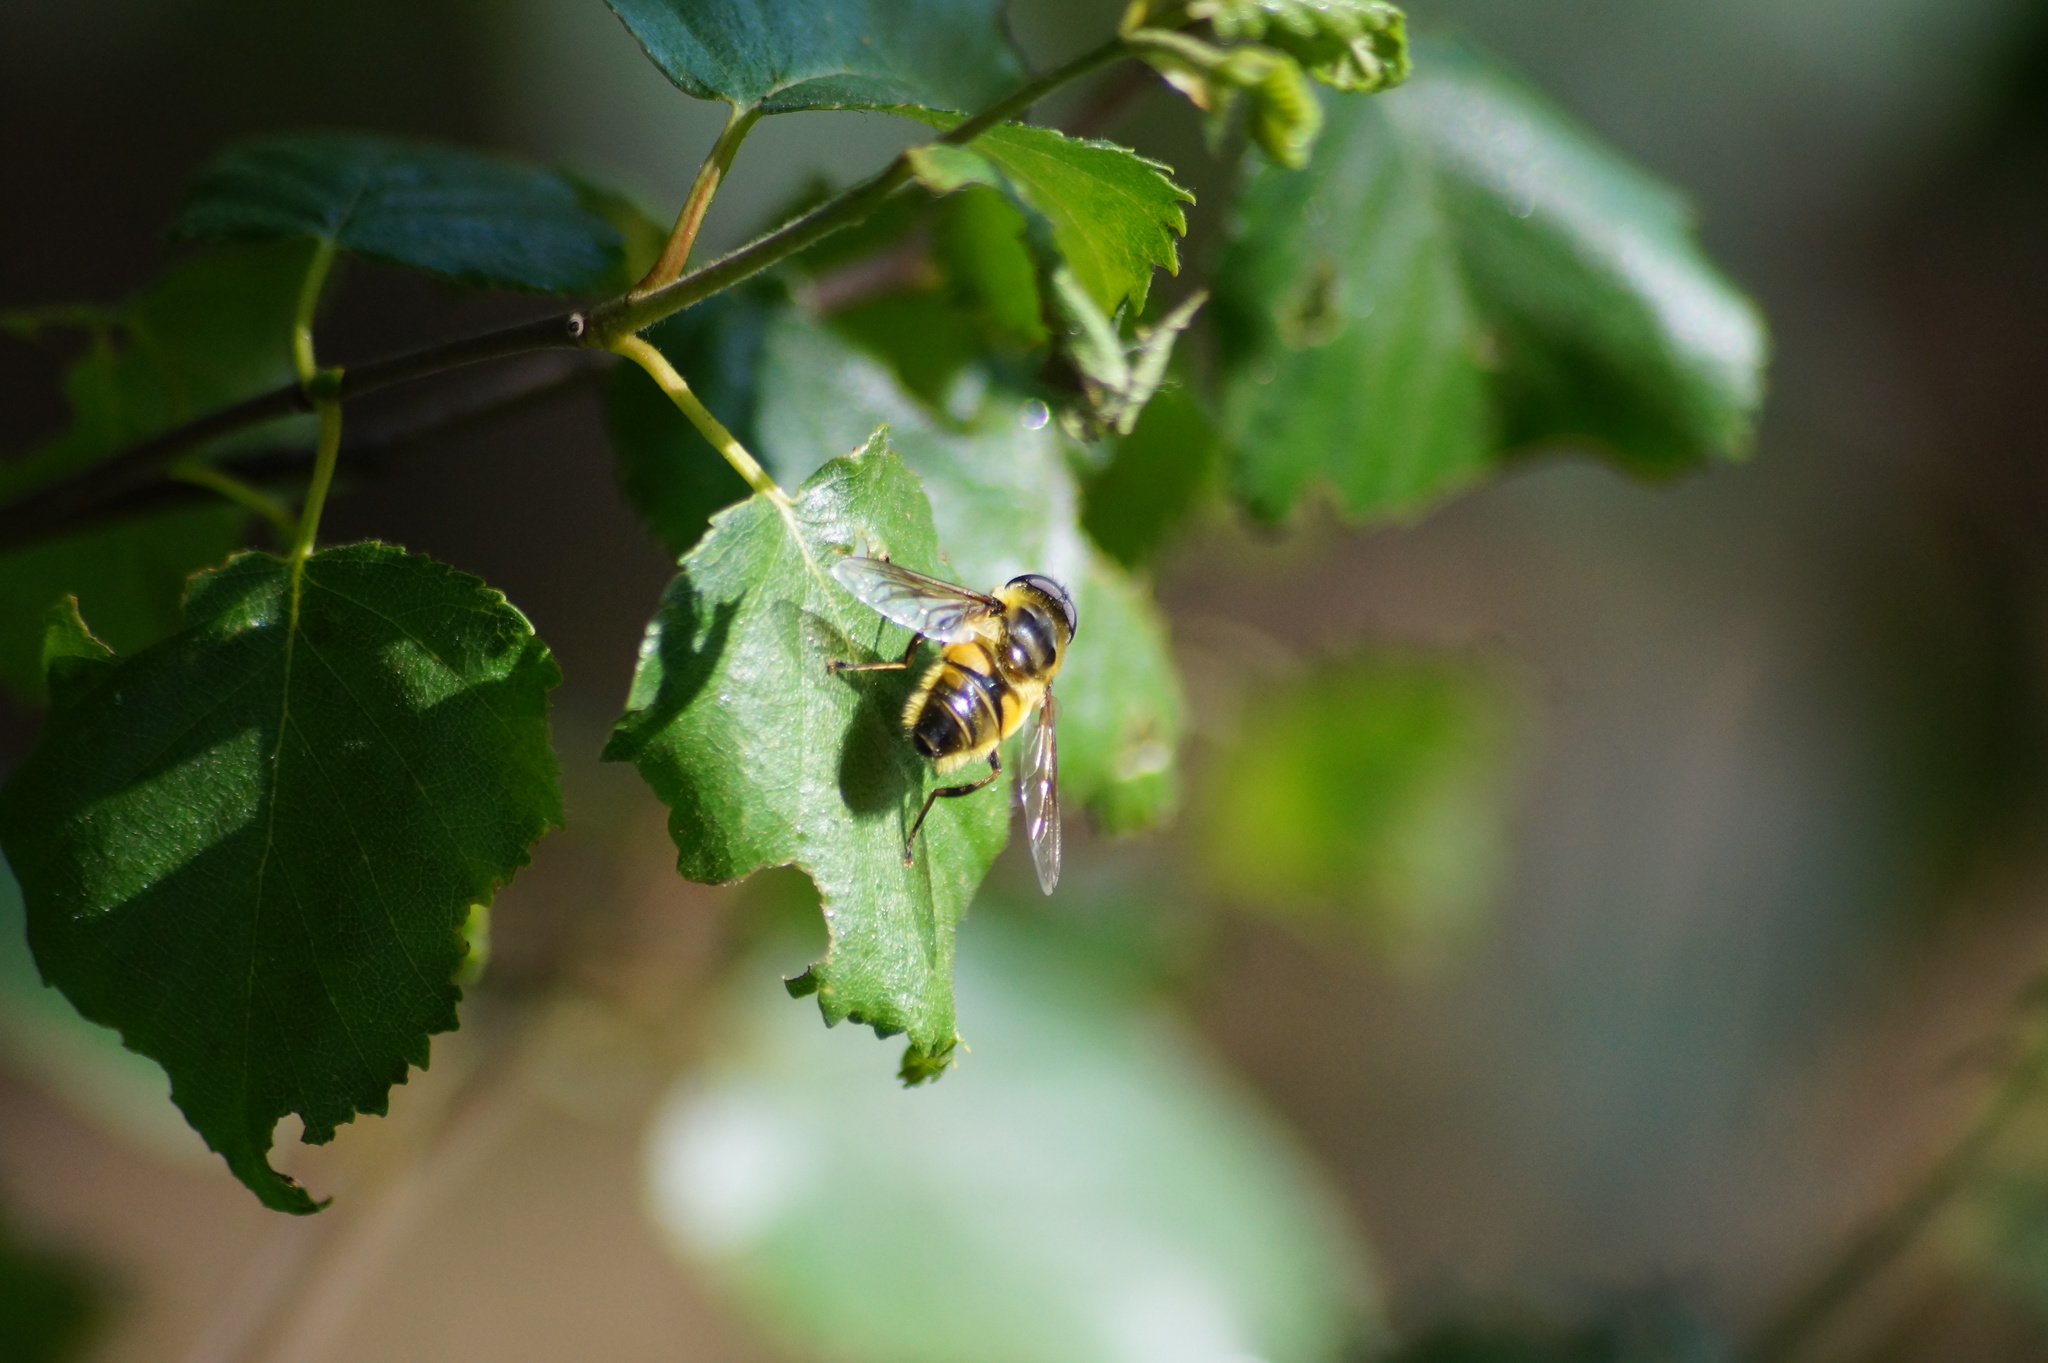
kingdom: Animalia
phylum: Arthropoda
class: Insecta
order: Diptera
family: Syrphidae
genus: Myathropa
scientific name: Myathropa florea
